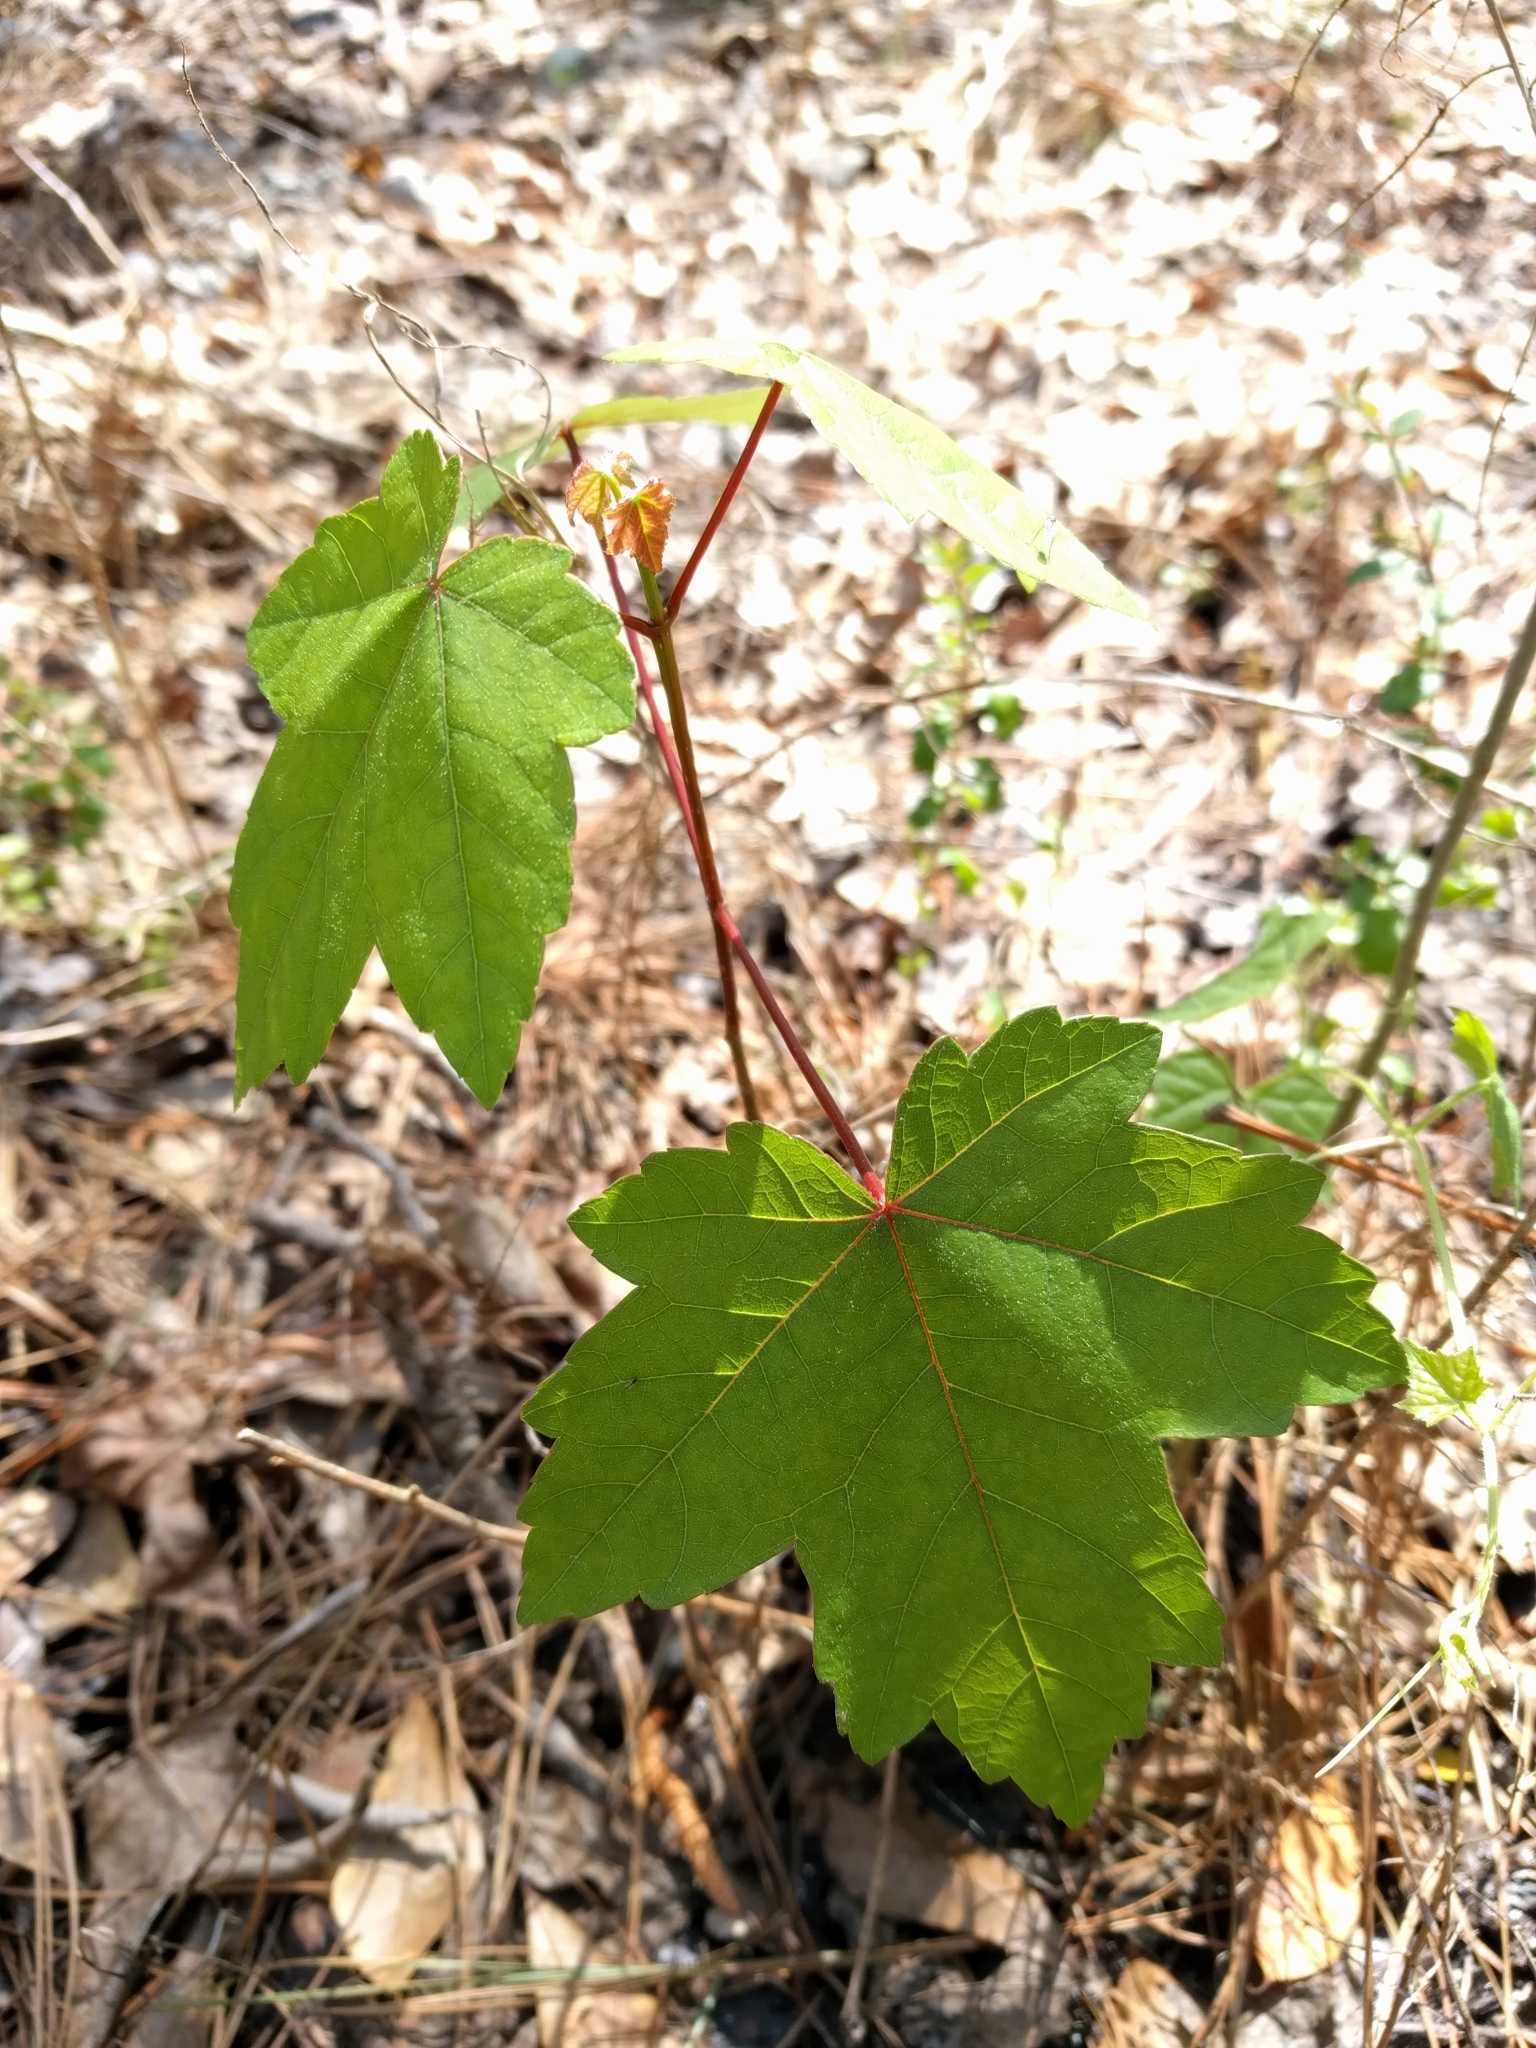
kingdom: Plantae
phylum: Tracheophyta
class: Magnoliopsida
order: Sapindales
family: Sapindaceae
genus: Acer
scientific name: Acer rubrum
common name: Red maple
